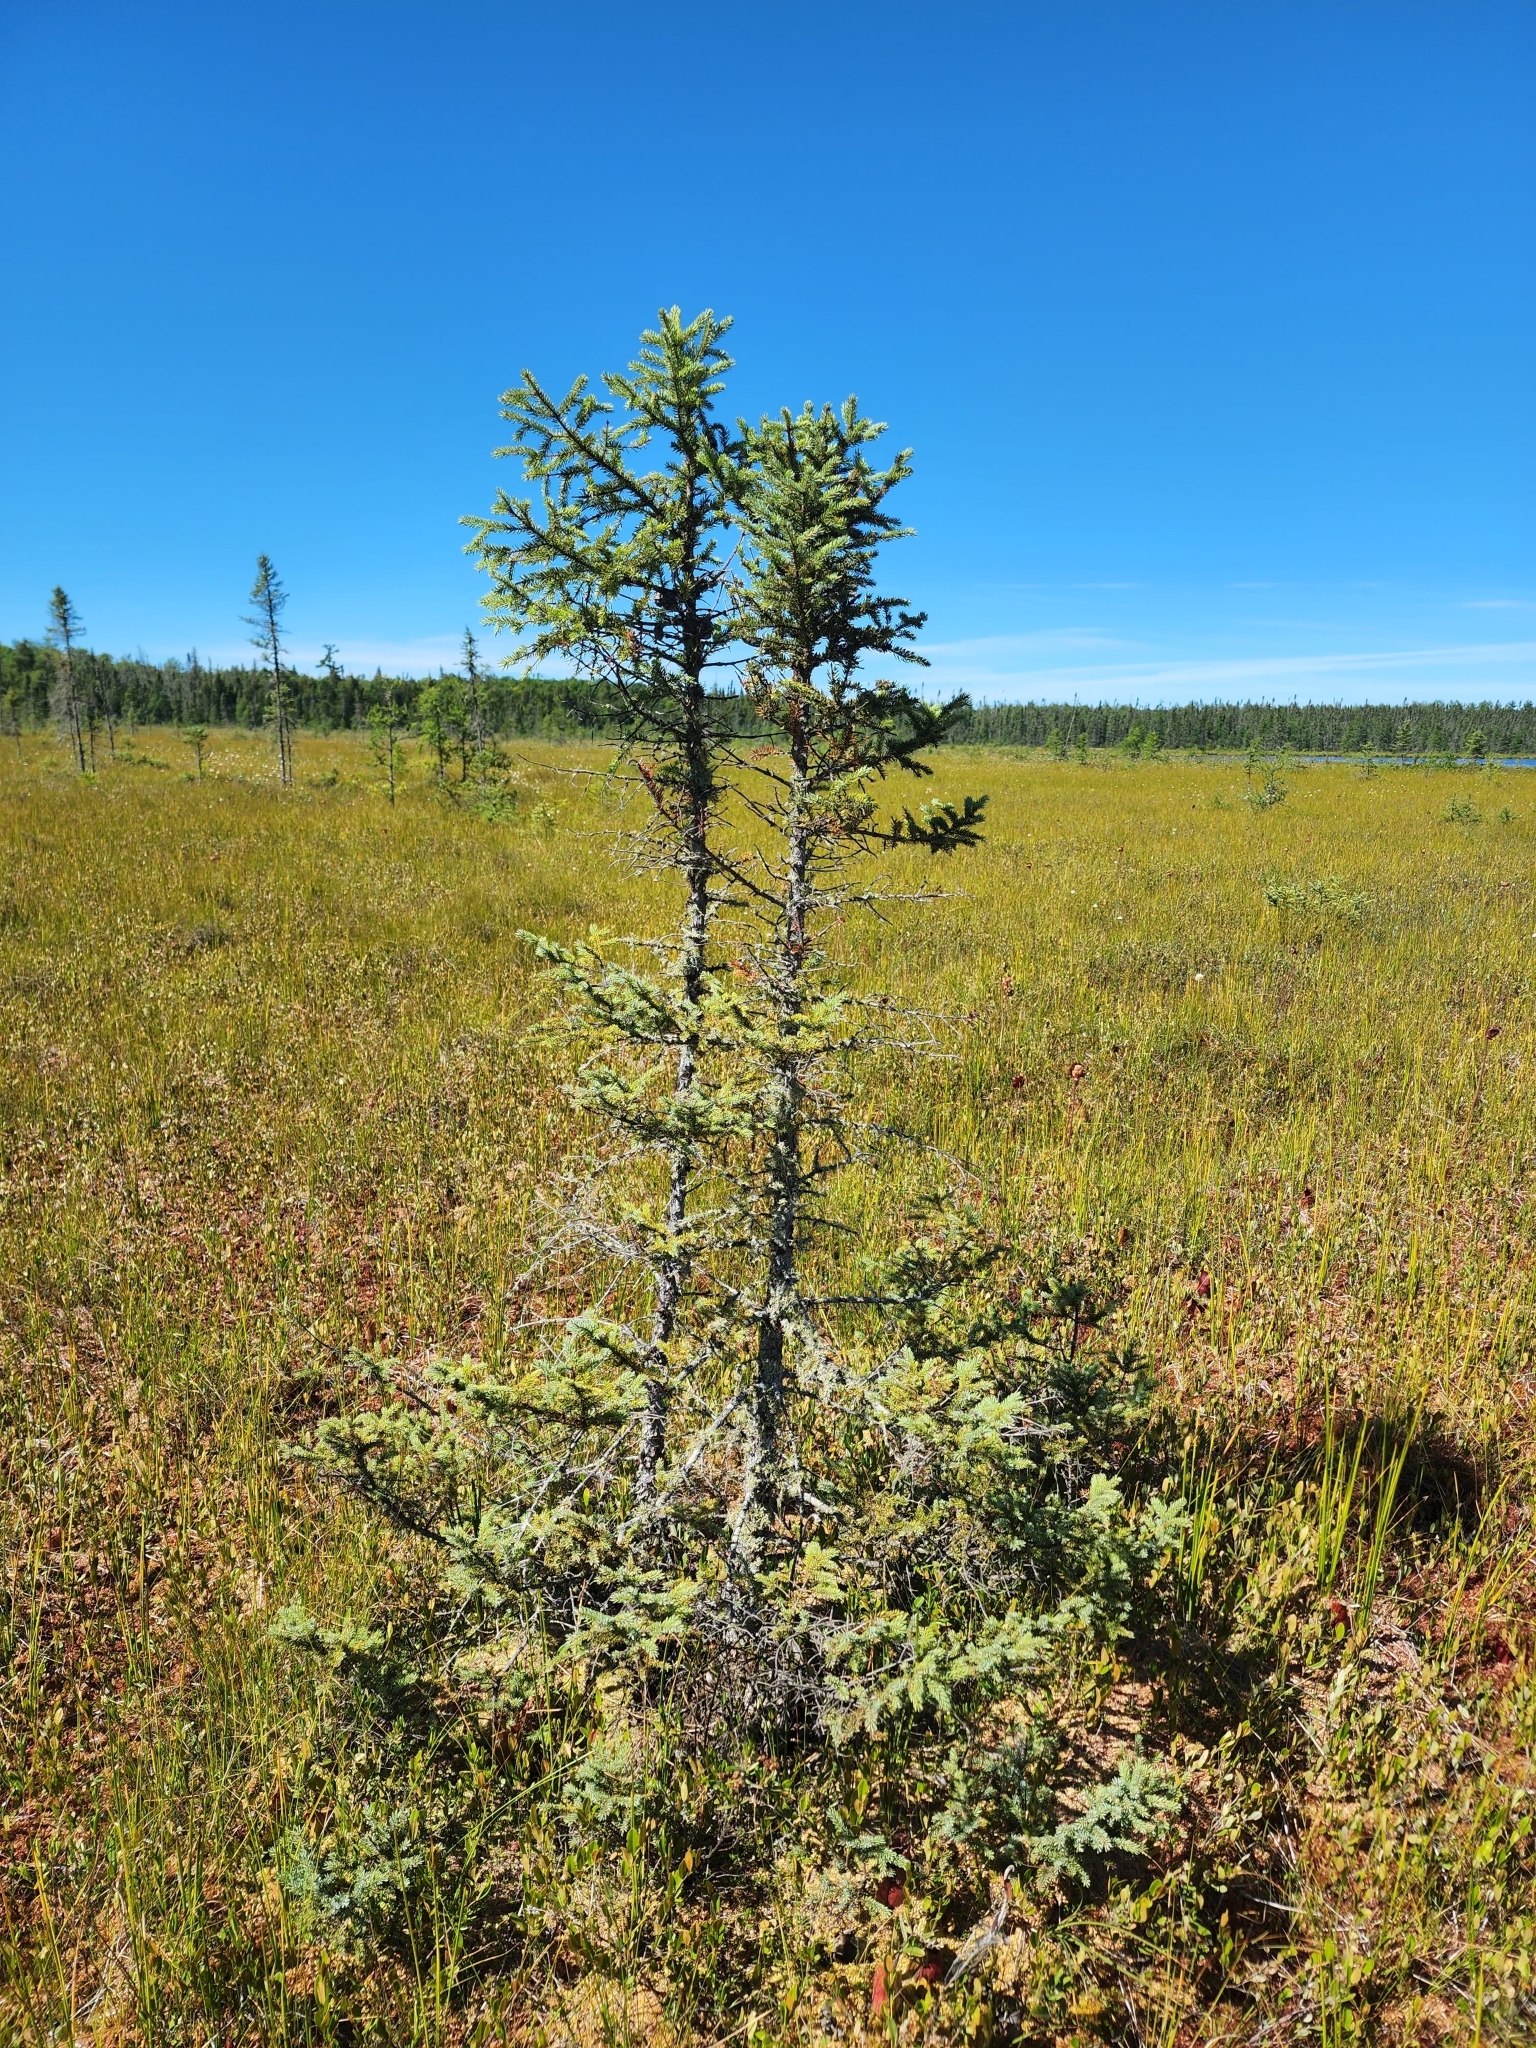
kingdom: Plantae
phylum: Tracheophyta
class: Pinopsida
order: Pinales
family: Pinaceae
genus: Picea
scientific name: Picea mariana
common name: Black spruce
